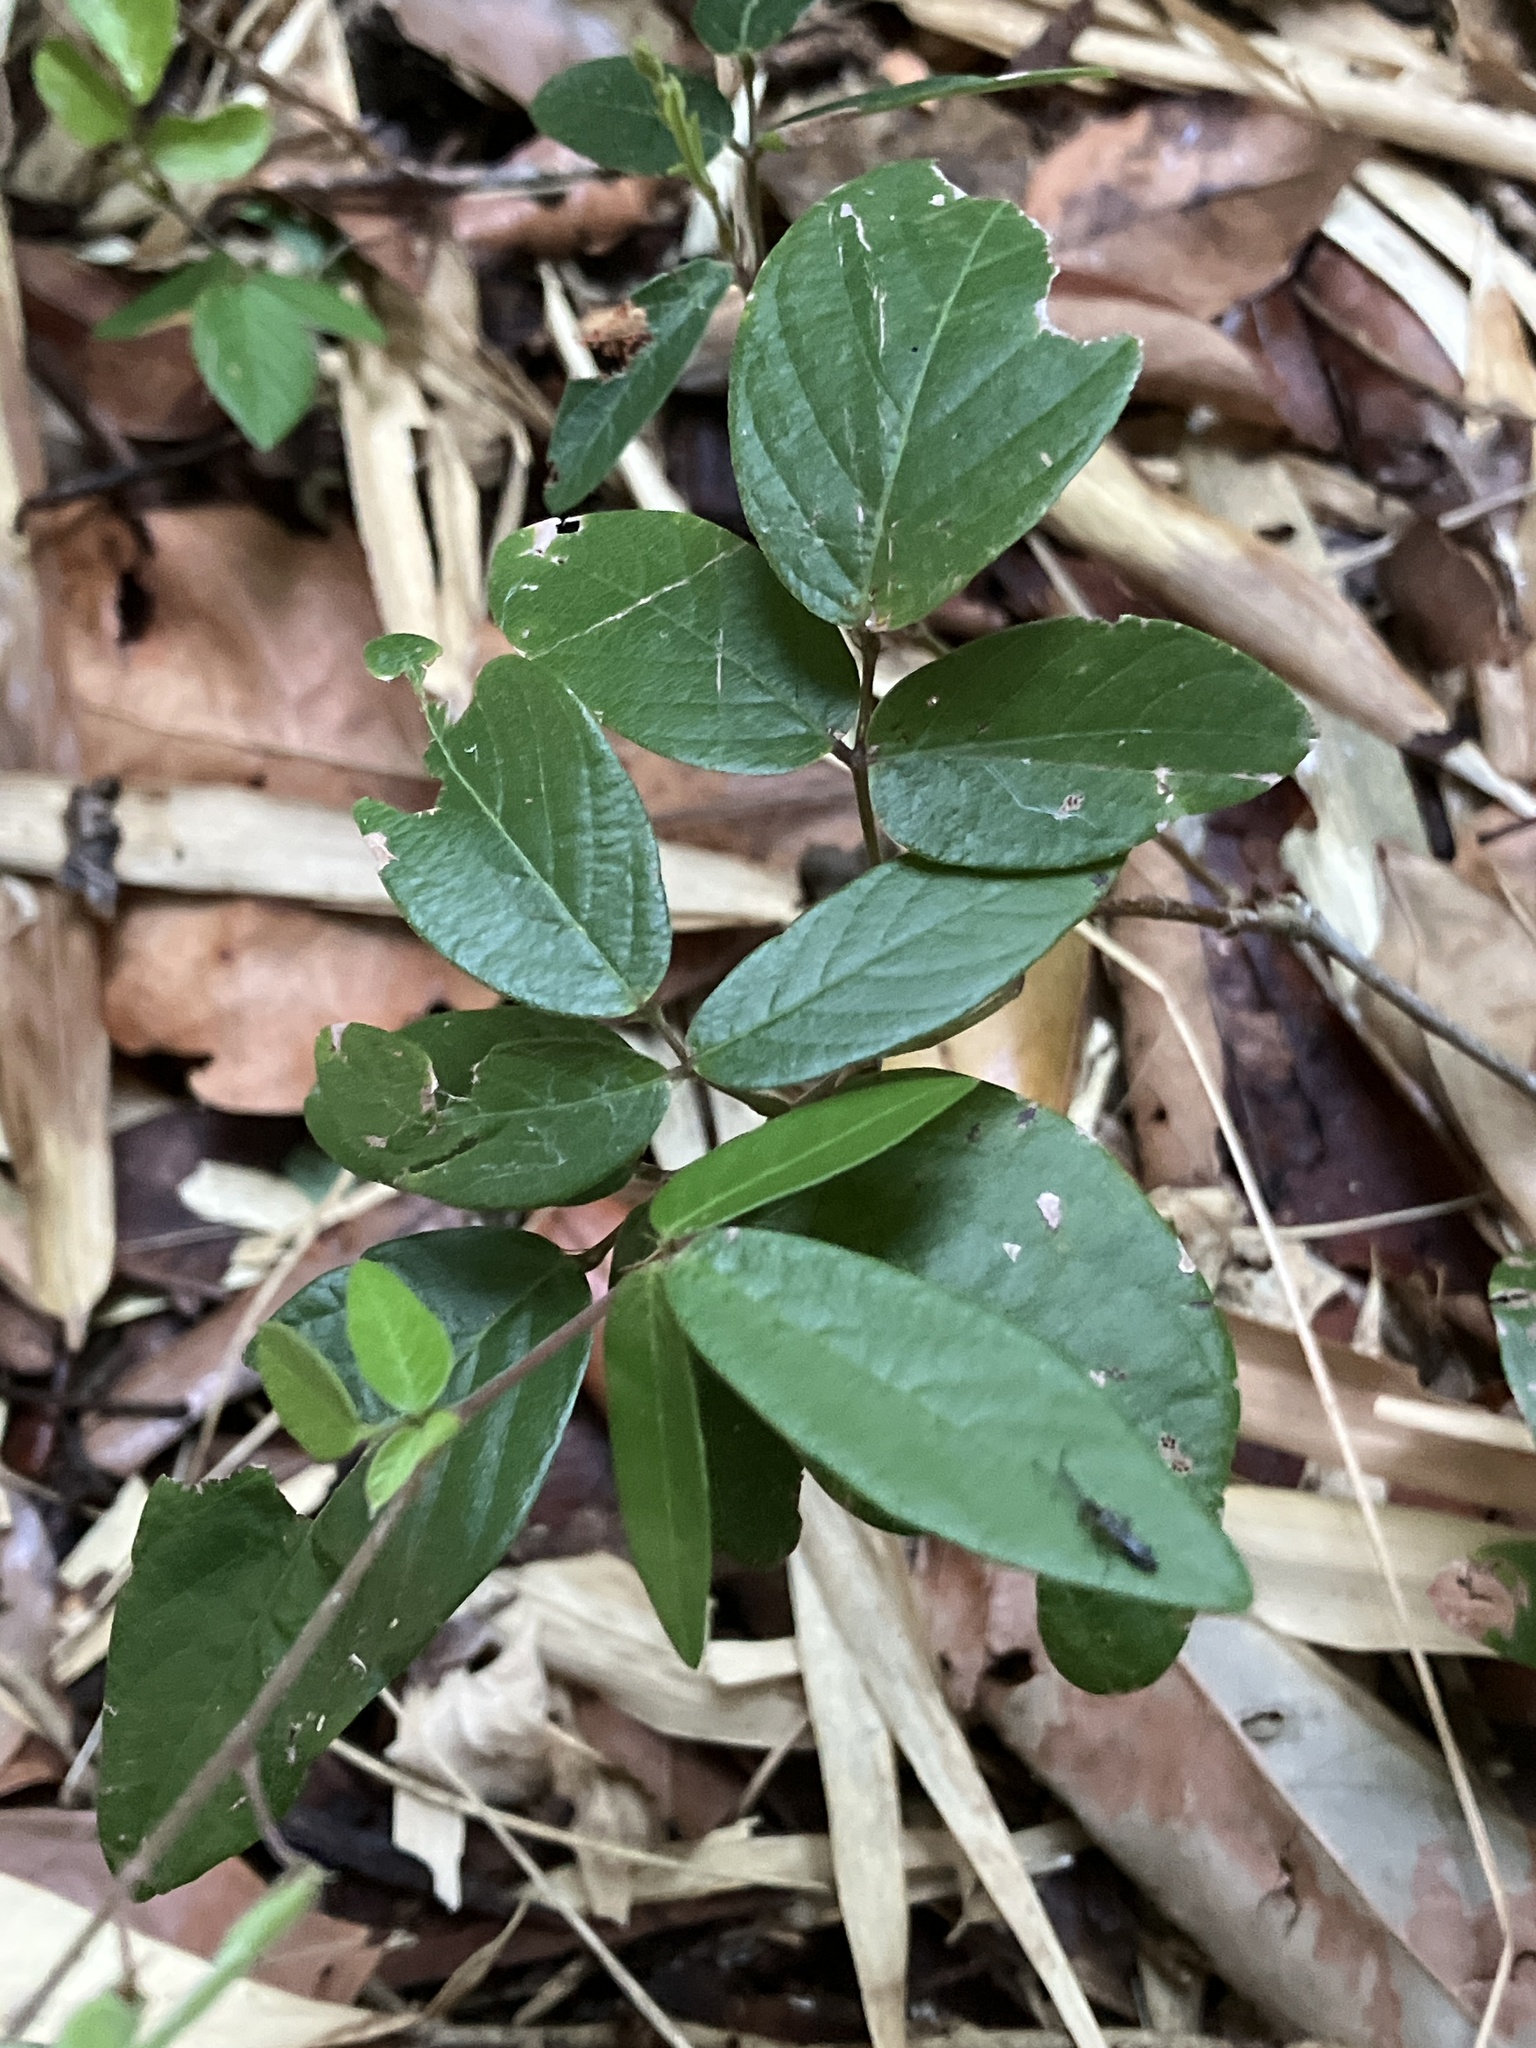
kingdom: Plantae
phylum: Tracheophyta
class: Magnoliopsida
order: Fabales
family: Fabaceae
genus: Desmodium
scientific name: Desmodium incanum
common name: Tickclover
